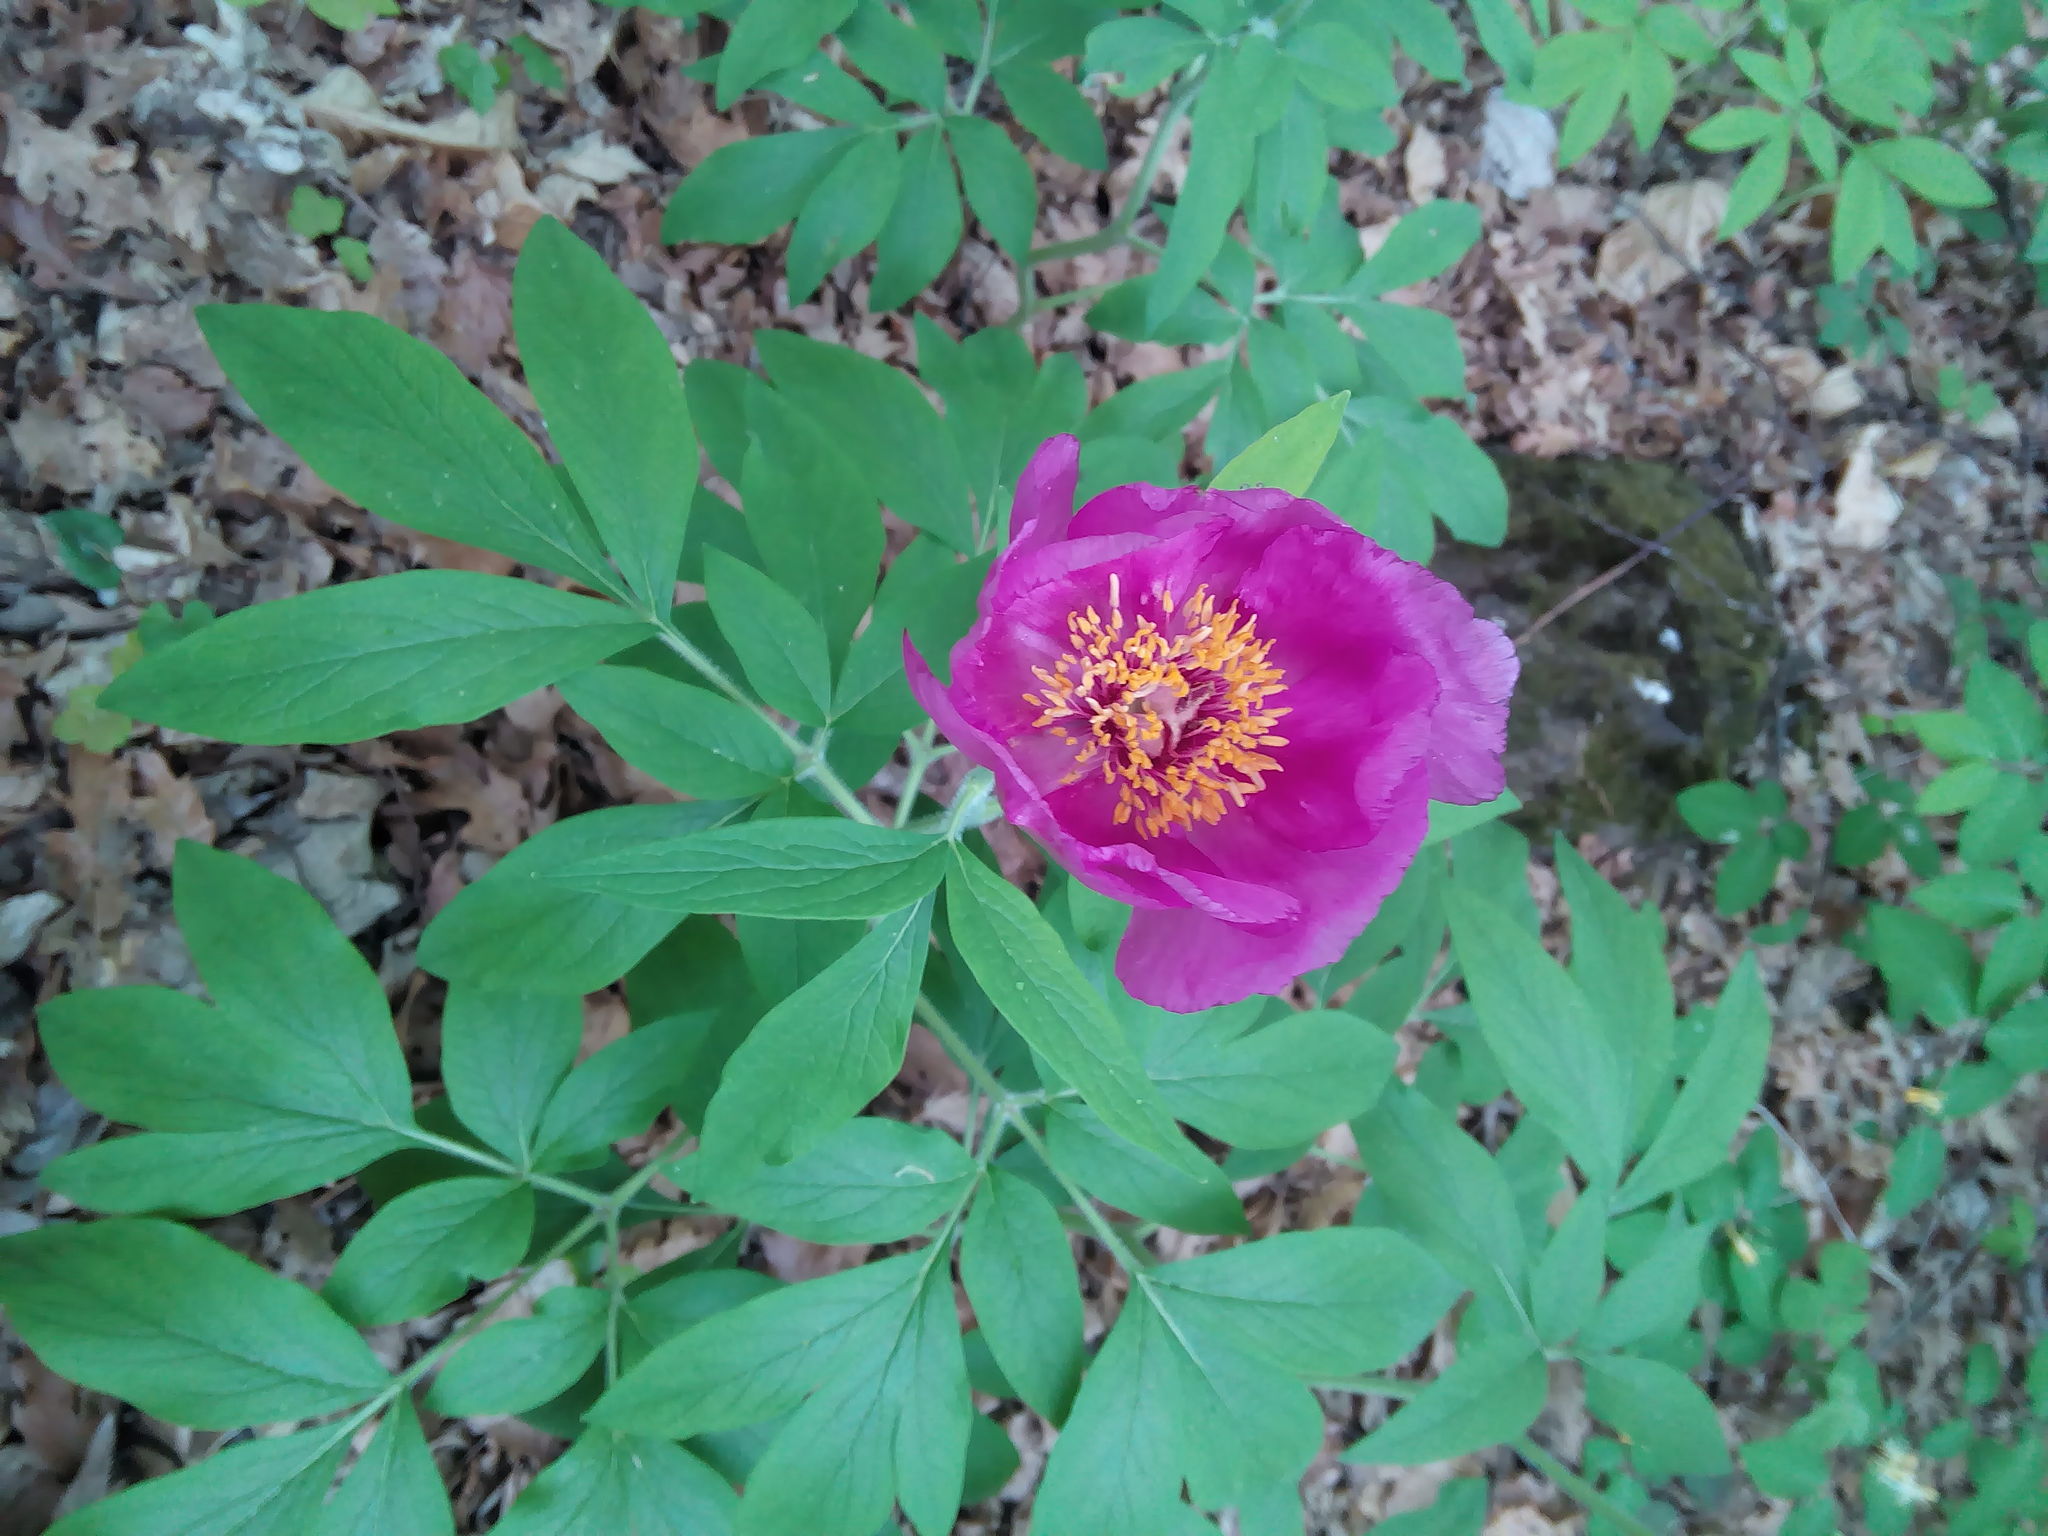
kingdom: Plantae
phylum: Tracheophyta
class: Magnoliopsida
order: Saxifragales
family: Paeoniaceae
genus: Paeonia
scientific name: Paeonia officinalis
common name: Common peony
